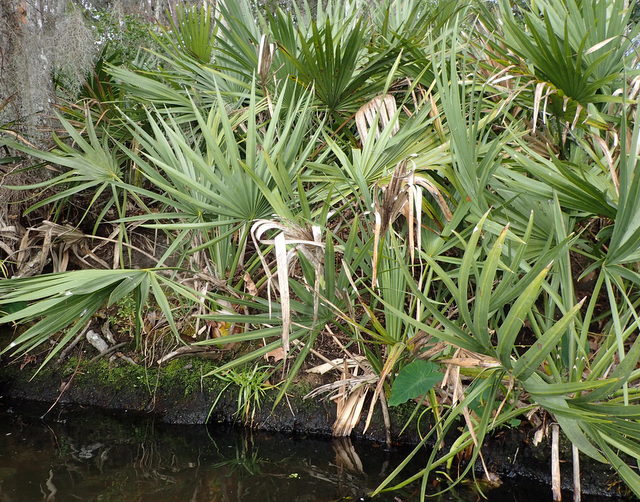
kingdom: Plantae
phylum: Tracheophyta
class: Liliopsida
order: Arecales
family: Arecaceae
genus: Serenoa
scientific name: Serenoa repens
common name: Saw-palmetto
